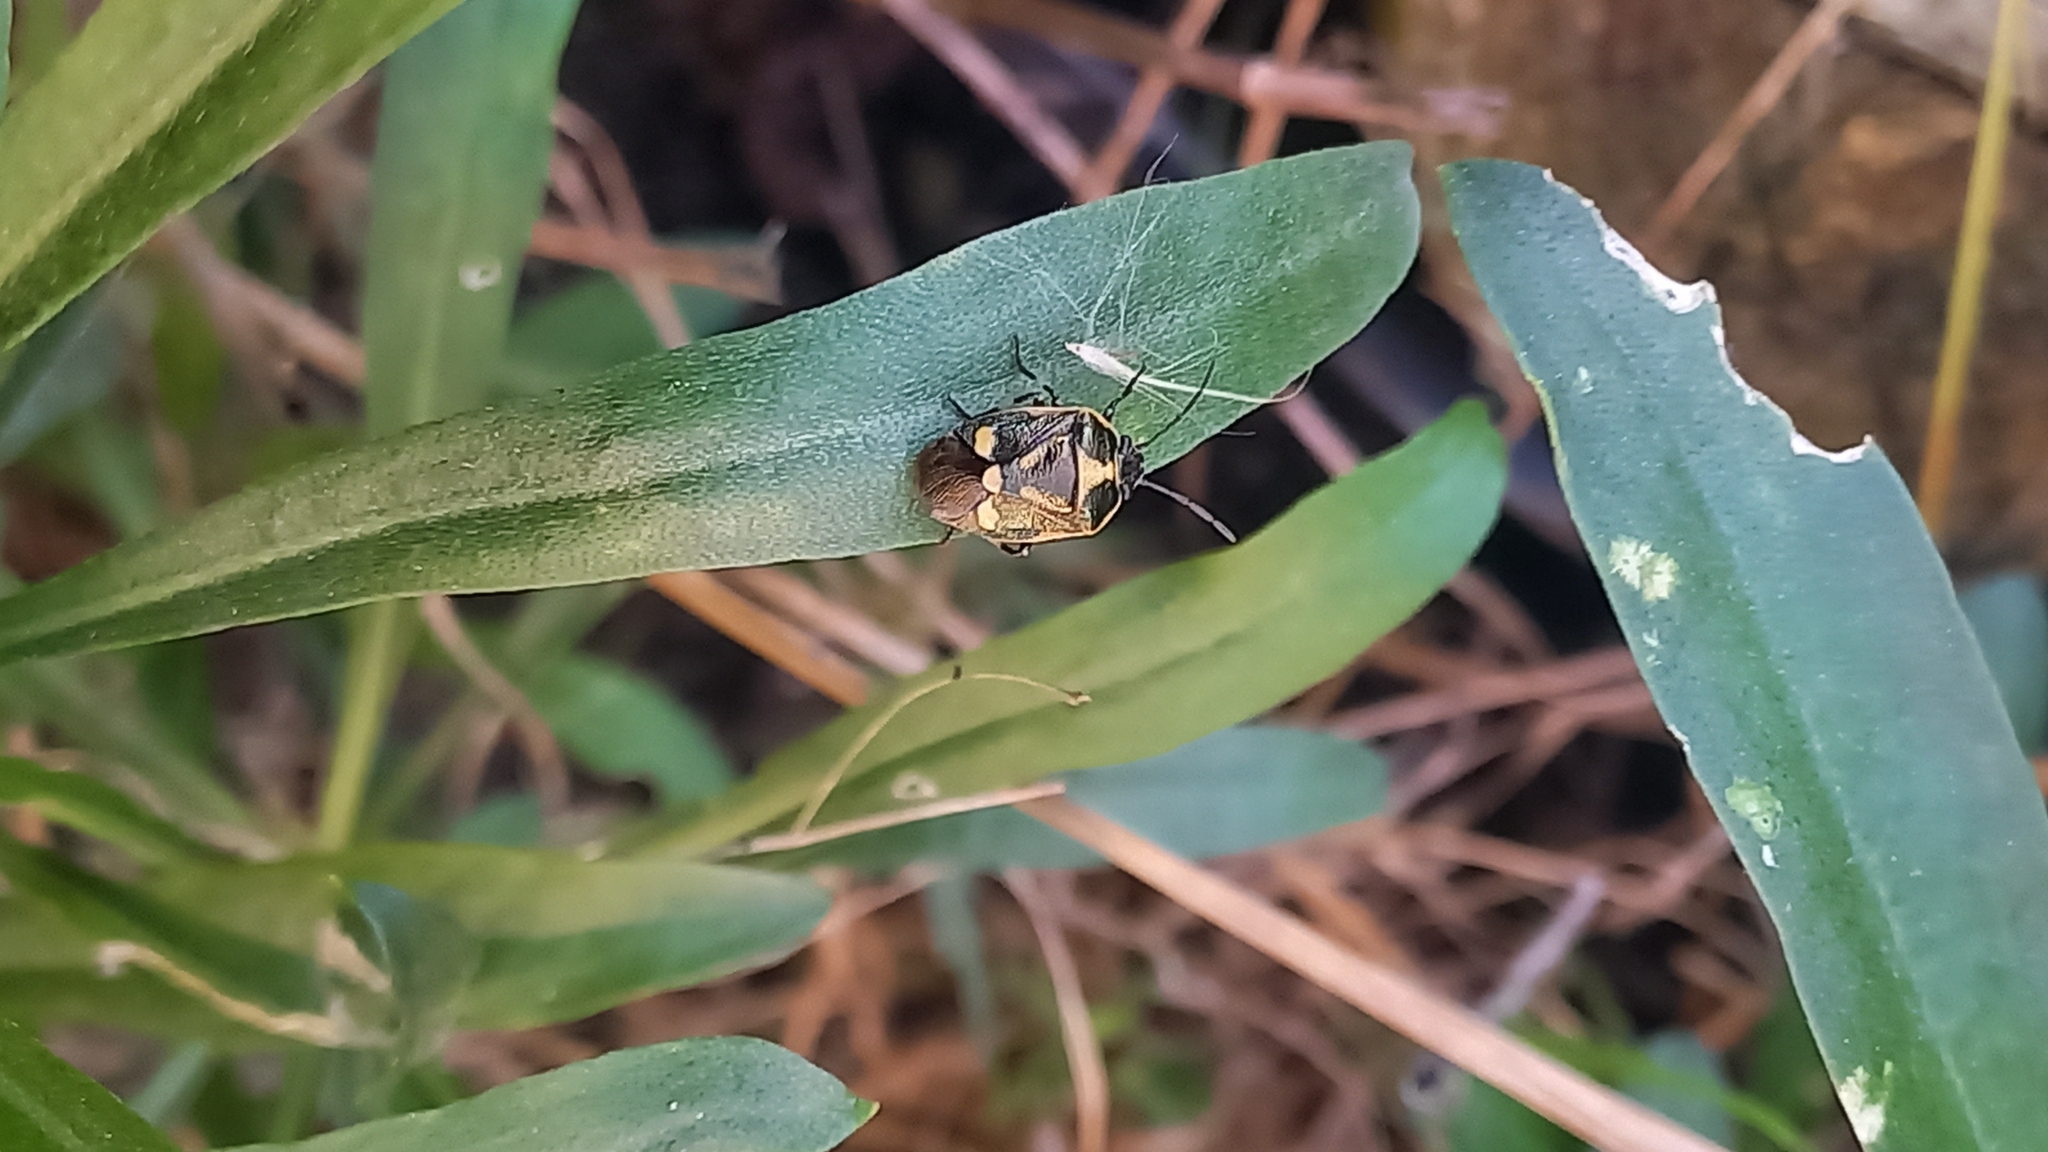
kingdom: Animalia
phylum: Arthropoda
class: Insecta
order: Hemiptera
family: Pentatomidae
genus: Eurydema
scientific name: Eurydema oleracea
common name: Cabbage bug
